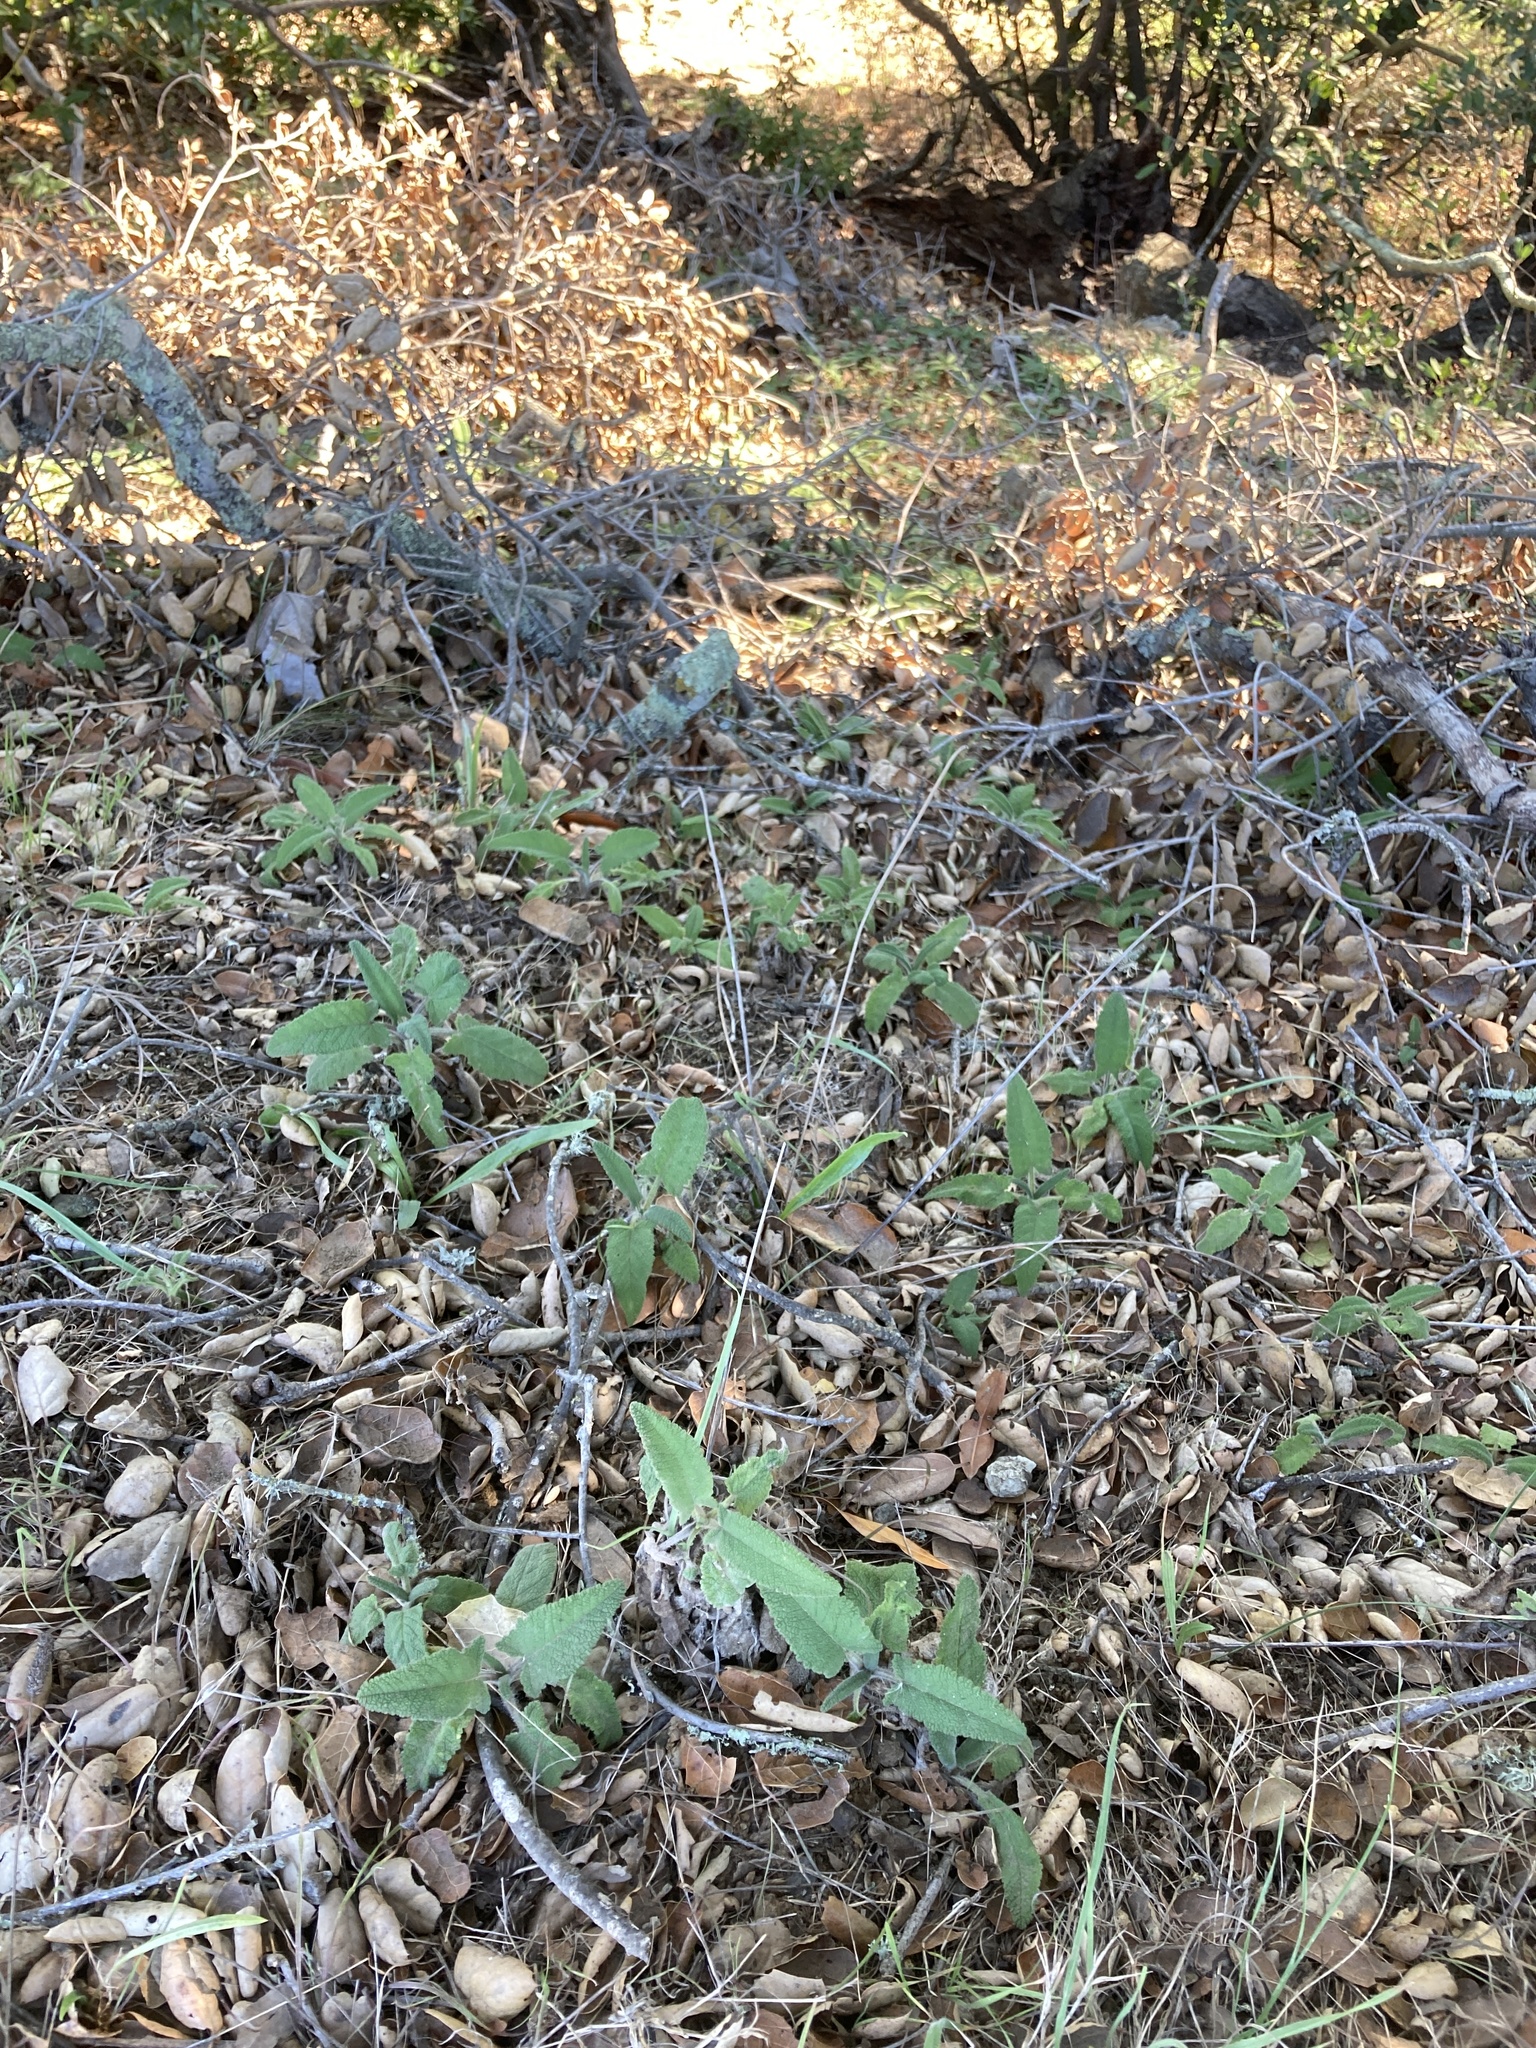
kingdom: Plantae
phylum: Tracheophyta
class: Magnoliopsida
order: Lamiales
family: Lamiaceae
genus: Salvia
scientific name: Salvia spathacea
